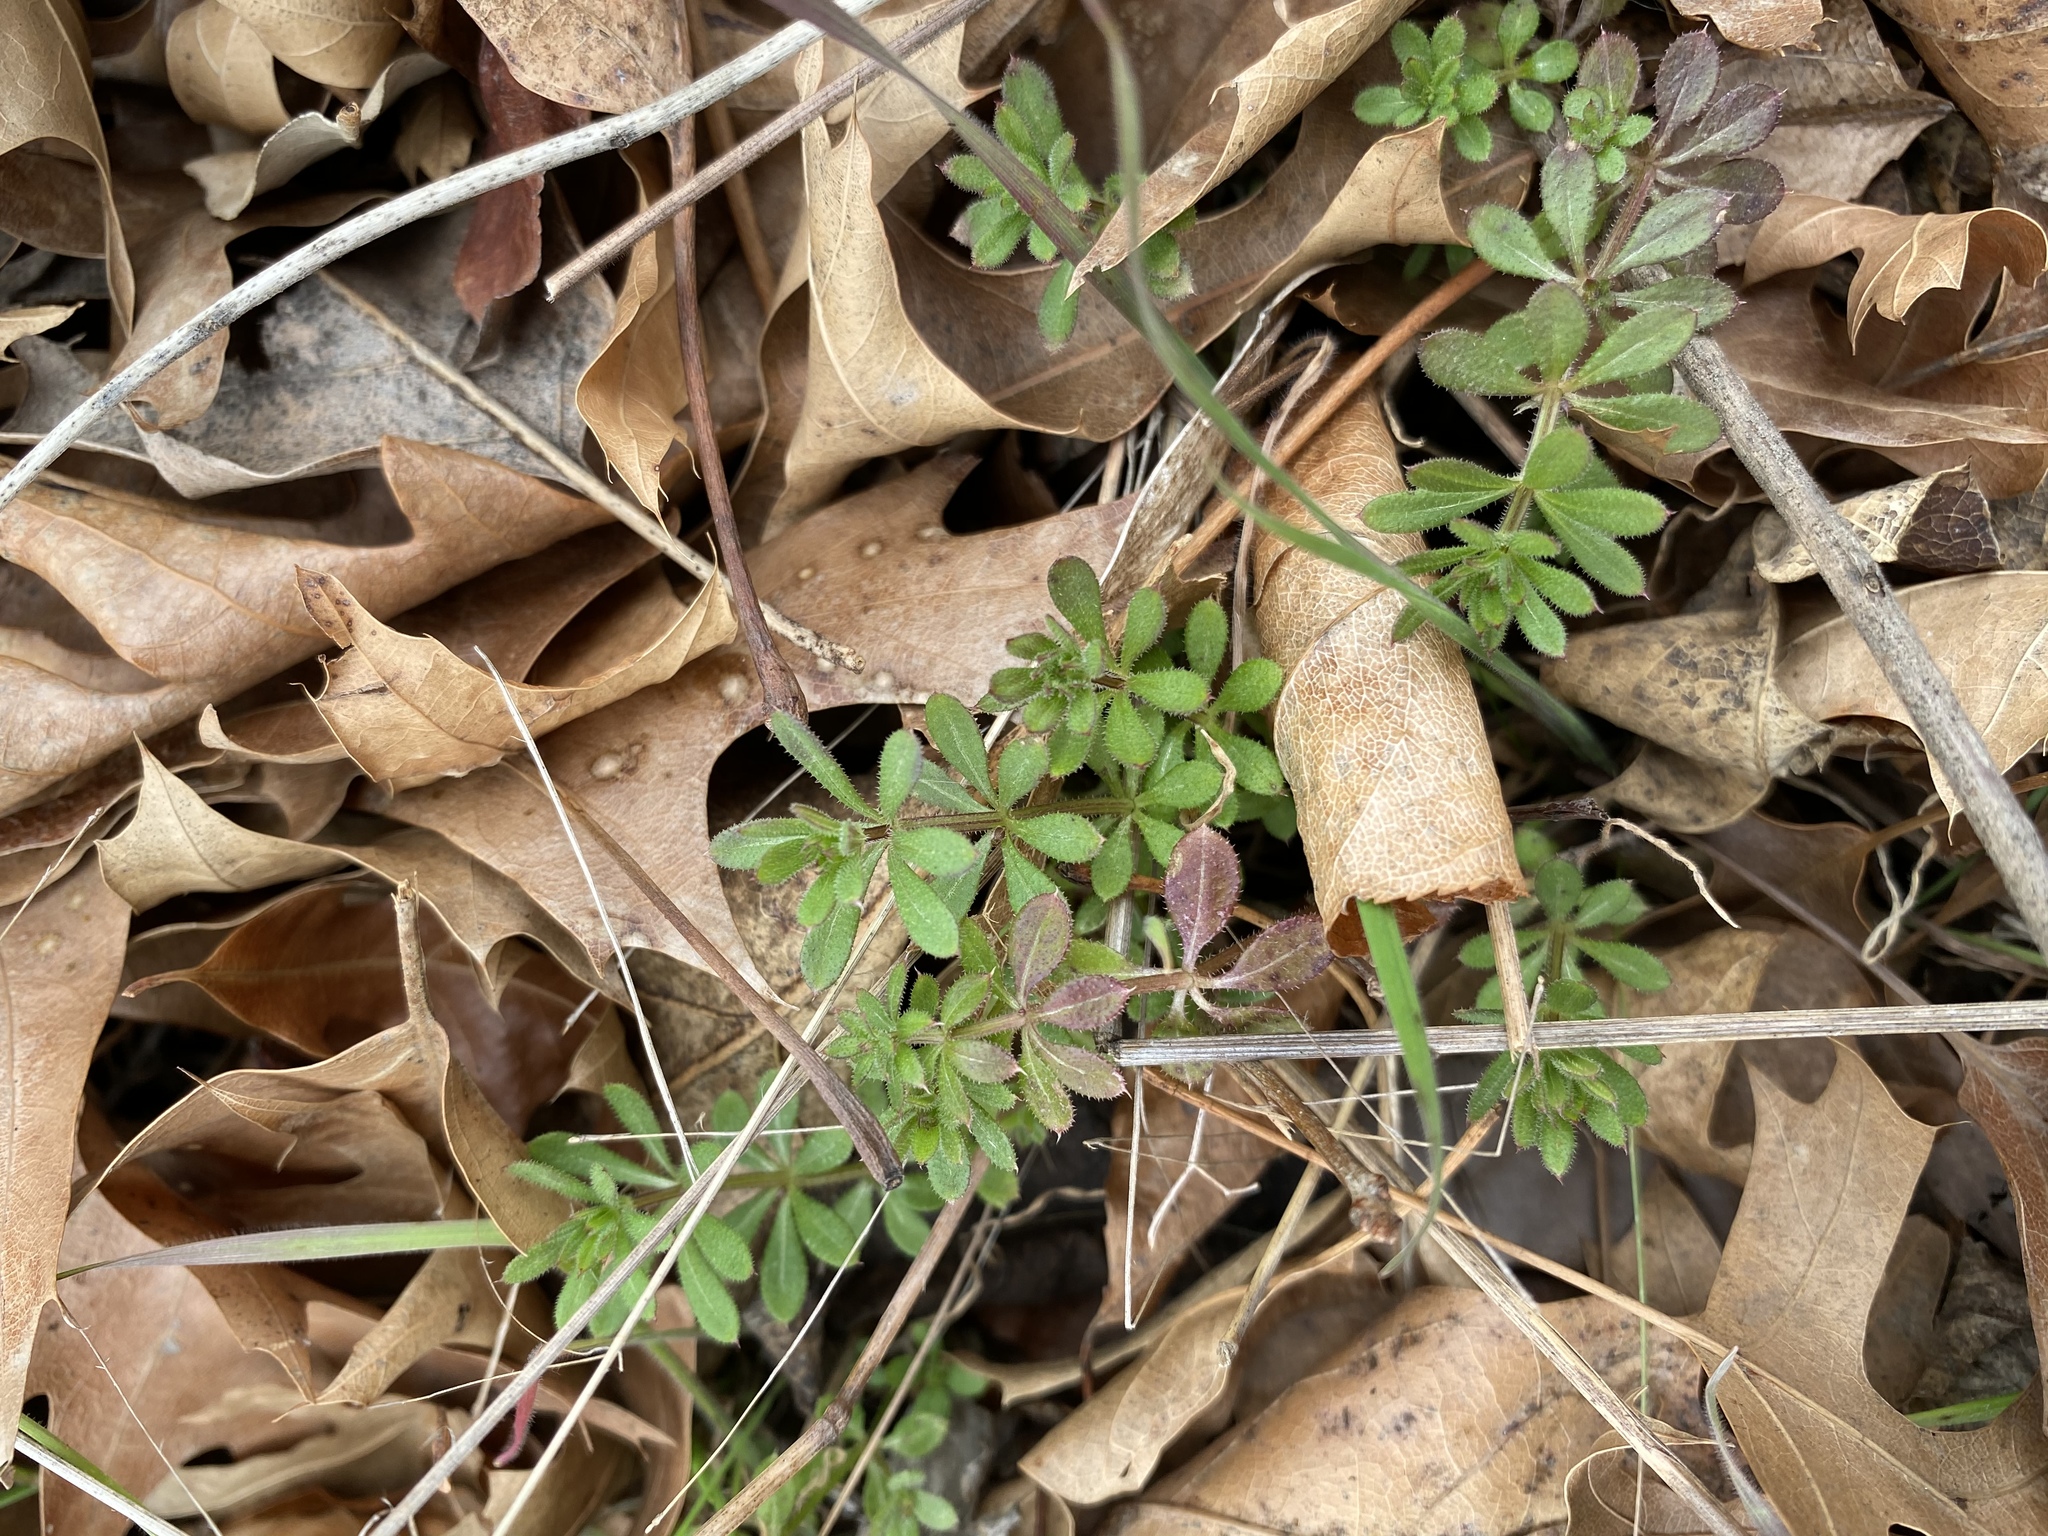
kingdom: Plantae
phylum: Tracheophyta
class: Magnoliopsida
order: Gentianales
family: Rubiaceae
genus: Galium
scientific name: Galium aparine
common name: Cleavers
